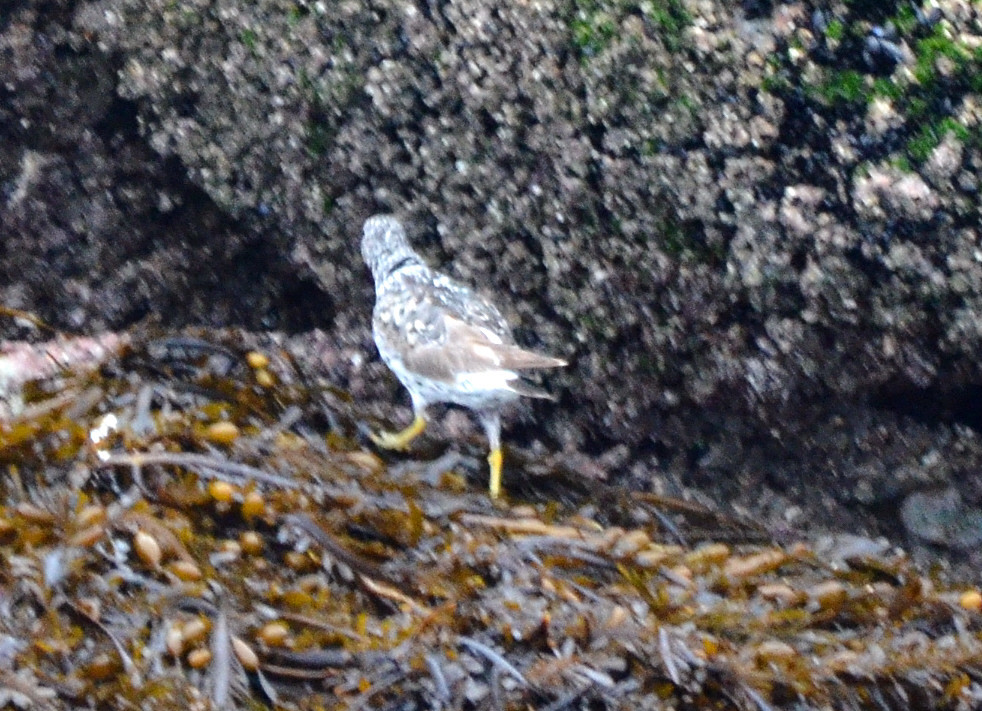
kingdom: Animalia
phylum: Chordata
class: Aves
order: Charadriiformes
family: Scolopacidae
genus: Calidris
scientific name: Calidris virgata
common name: Surfbird
